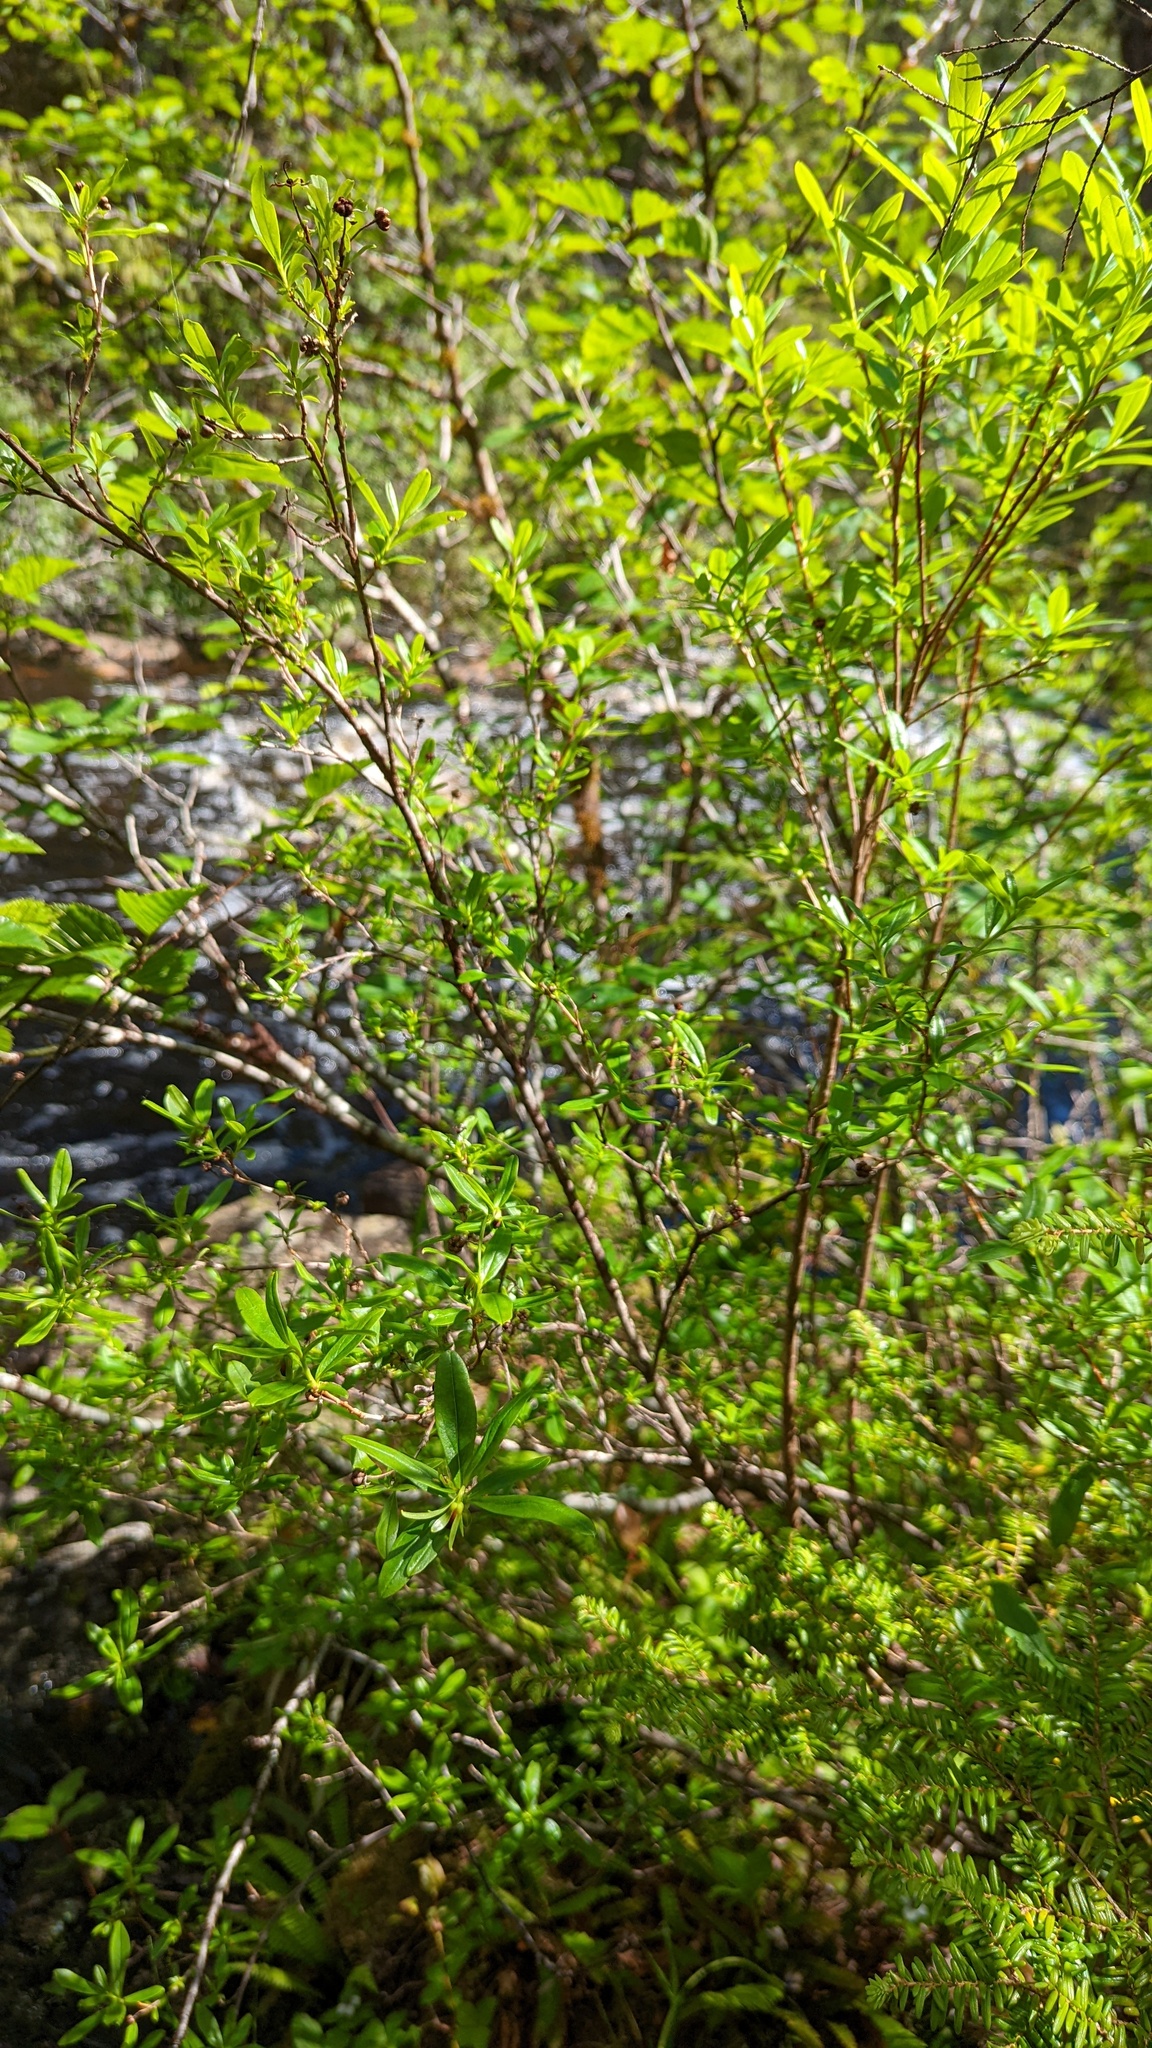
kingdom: Plantae
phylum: Tracheophyta
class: Magnoliopsida
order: Ericales
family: Ericaceae
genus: Elliottia
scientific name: Elliottia pyroliflora
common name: Copperbush
